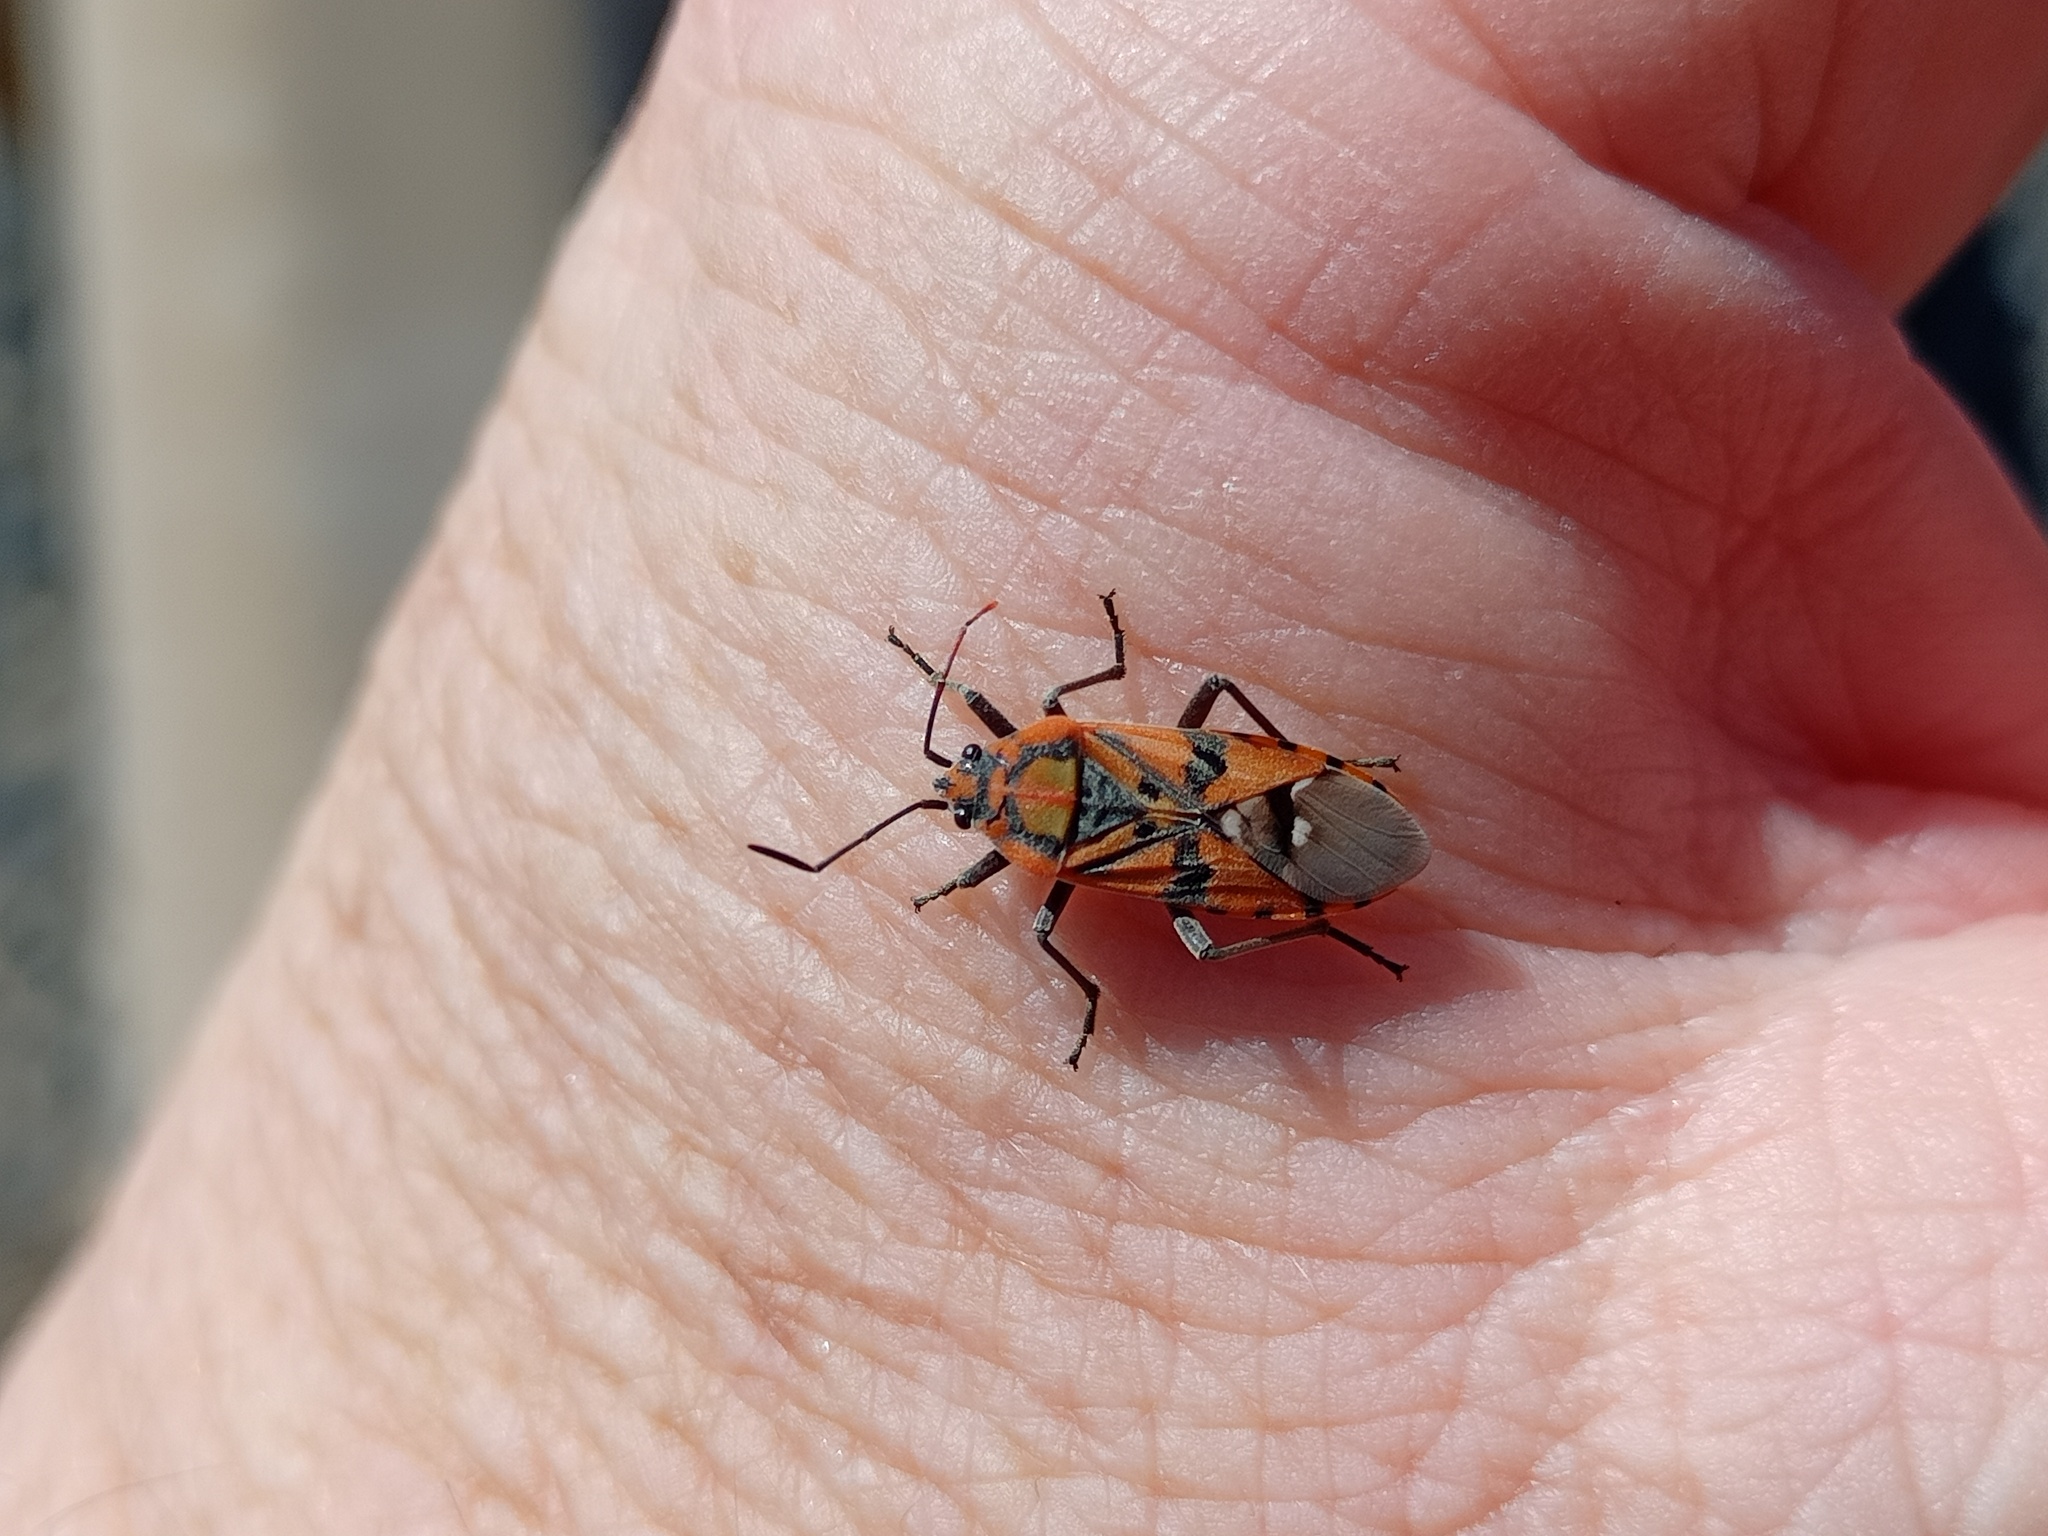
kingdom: Animalia
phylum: Arthropoda
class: Insecta
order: Hemiptera
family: Lygaeidae
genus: Spilostethus
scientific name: Spilostethus pandurus
